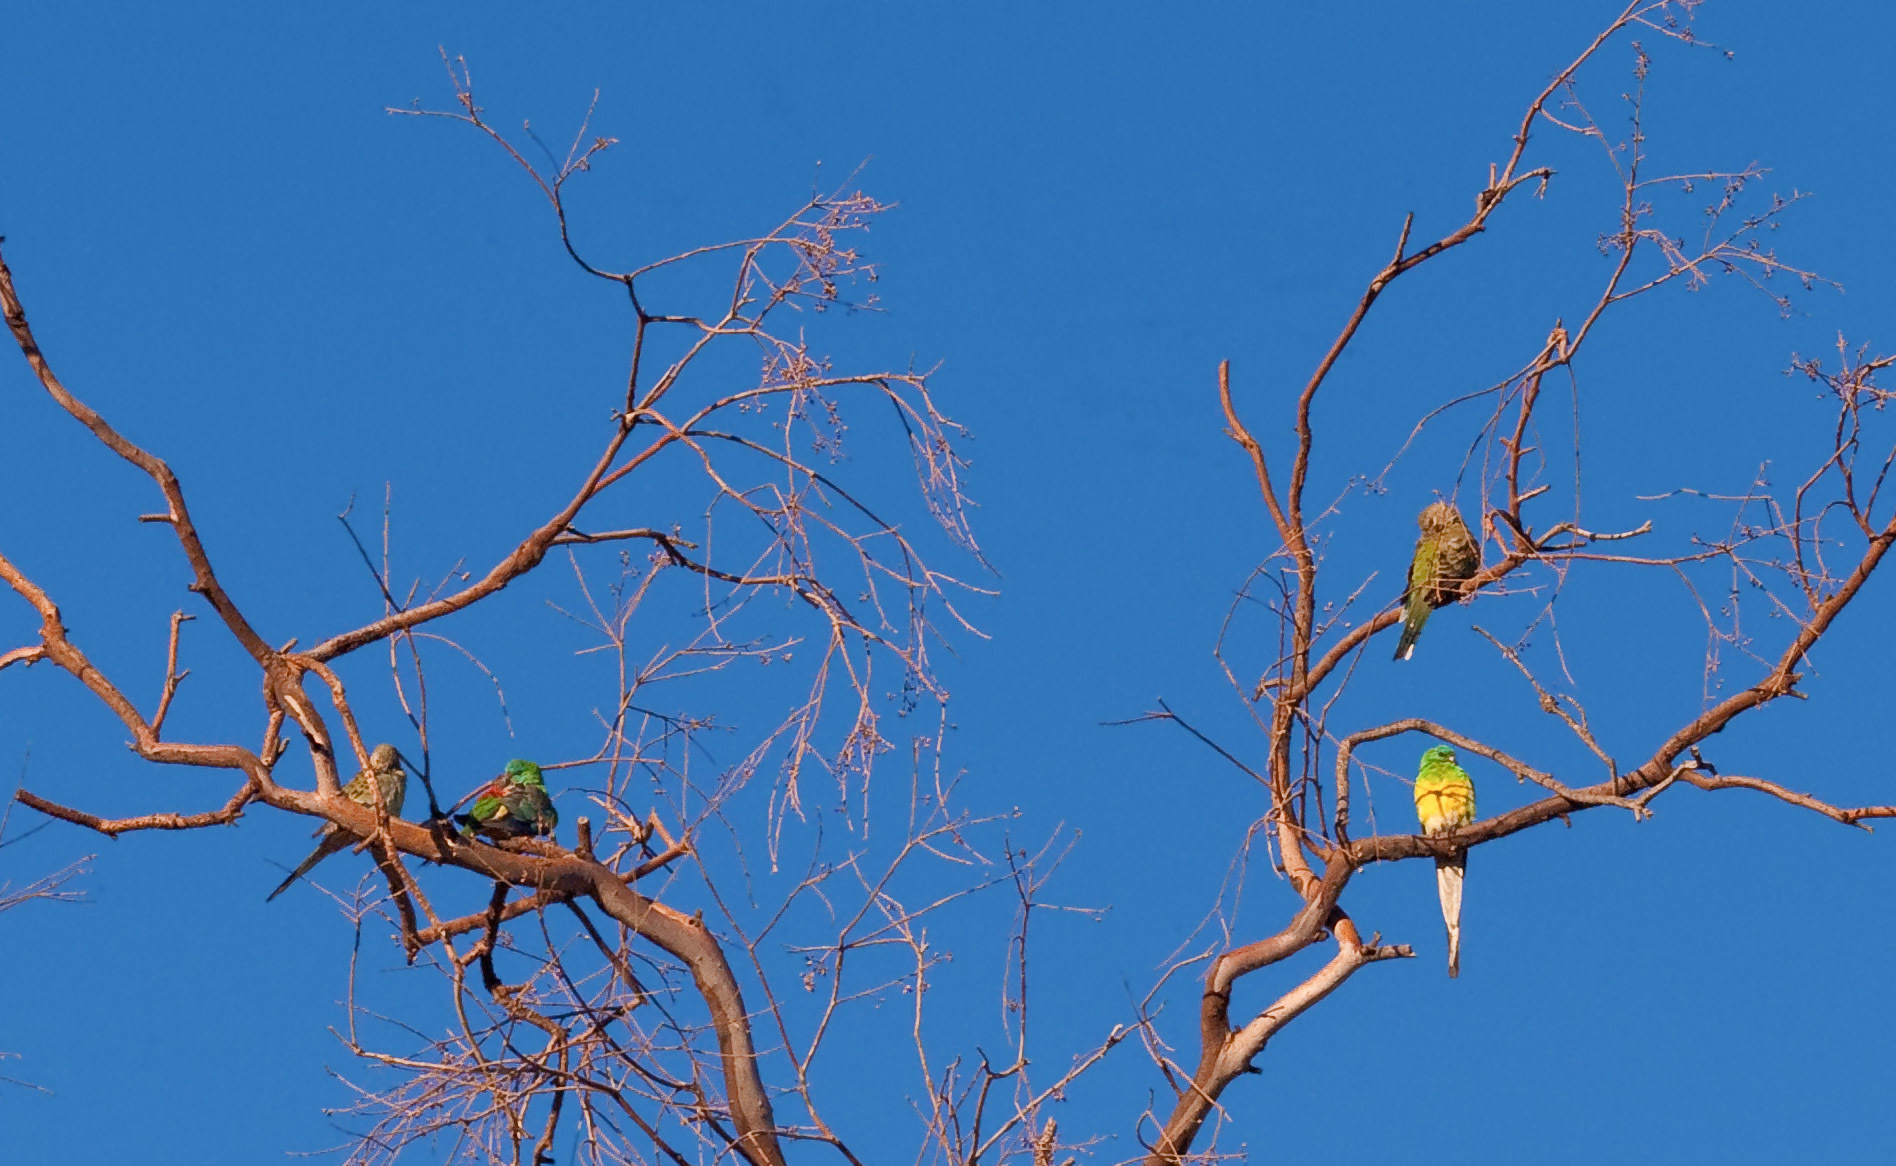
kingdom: Animalia
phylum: Chordata
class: Aves
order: Psittaciformes
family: Psittacidae
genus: Psephotus
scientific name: Psephotus haematonotus
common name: Red-rumped parrot
